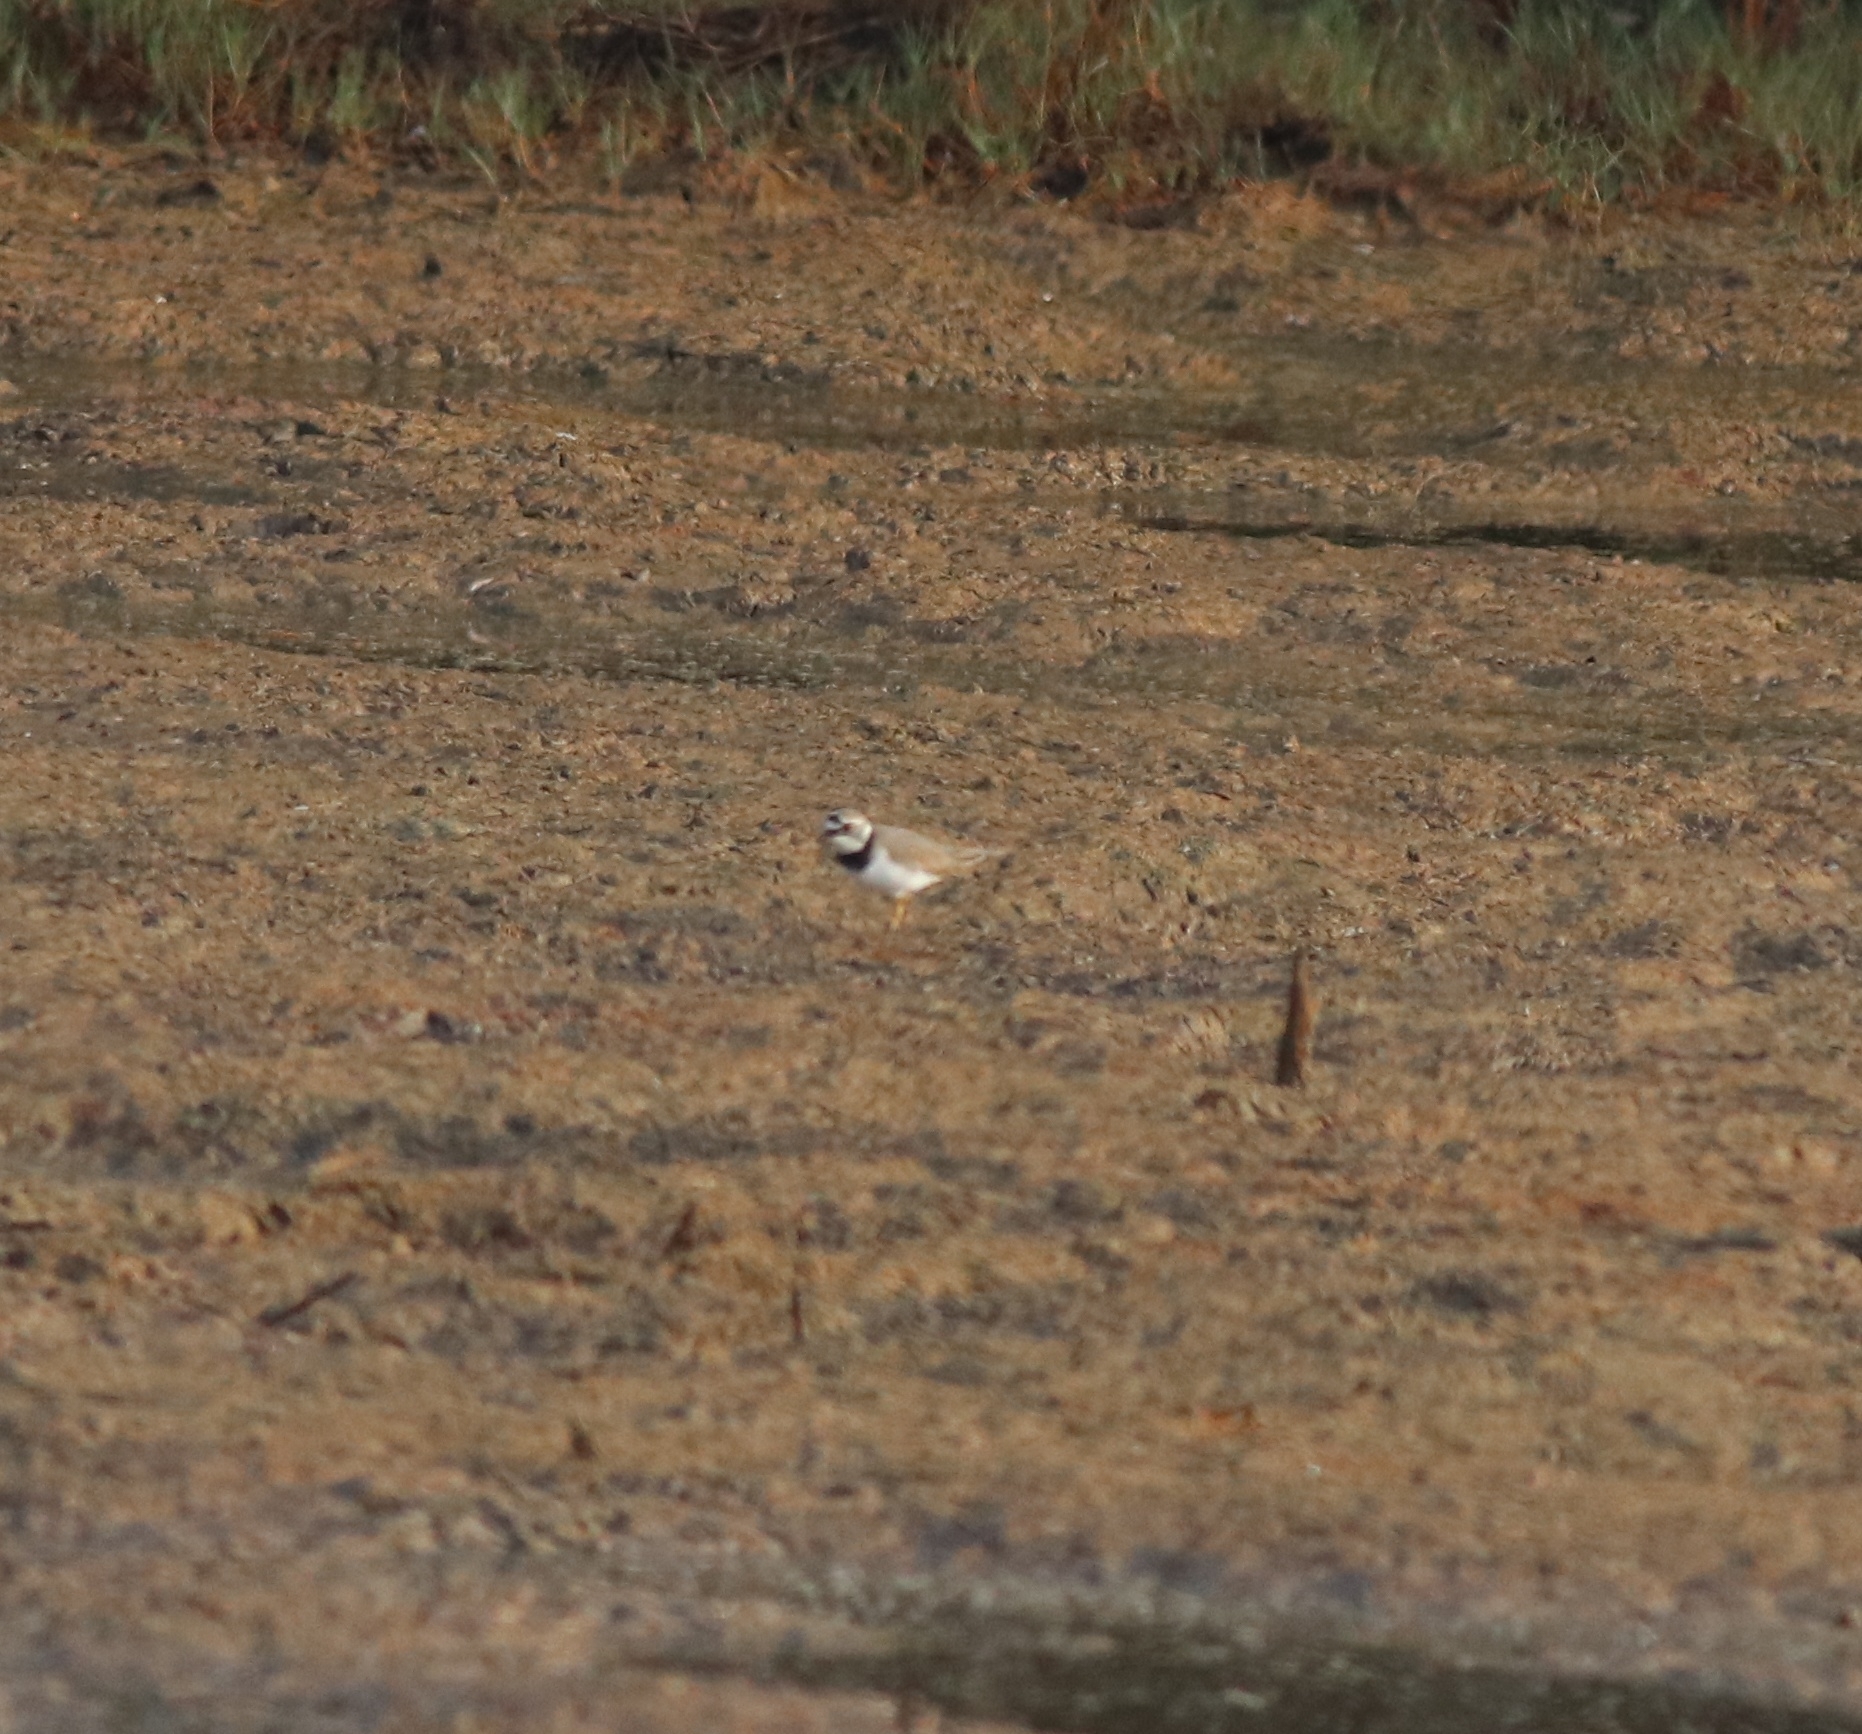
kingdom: Animalia
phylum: Chordata
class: Aves
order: Charadriiformes
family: Charadriidae
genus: Charadrius
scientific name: Charadrius dubius
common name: Little ringed plover
